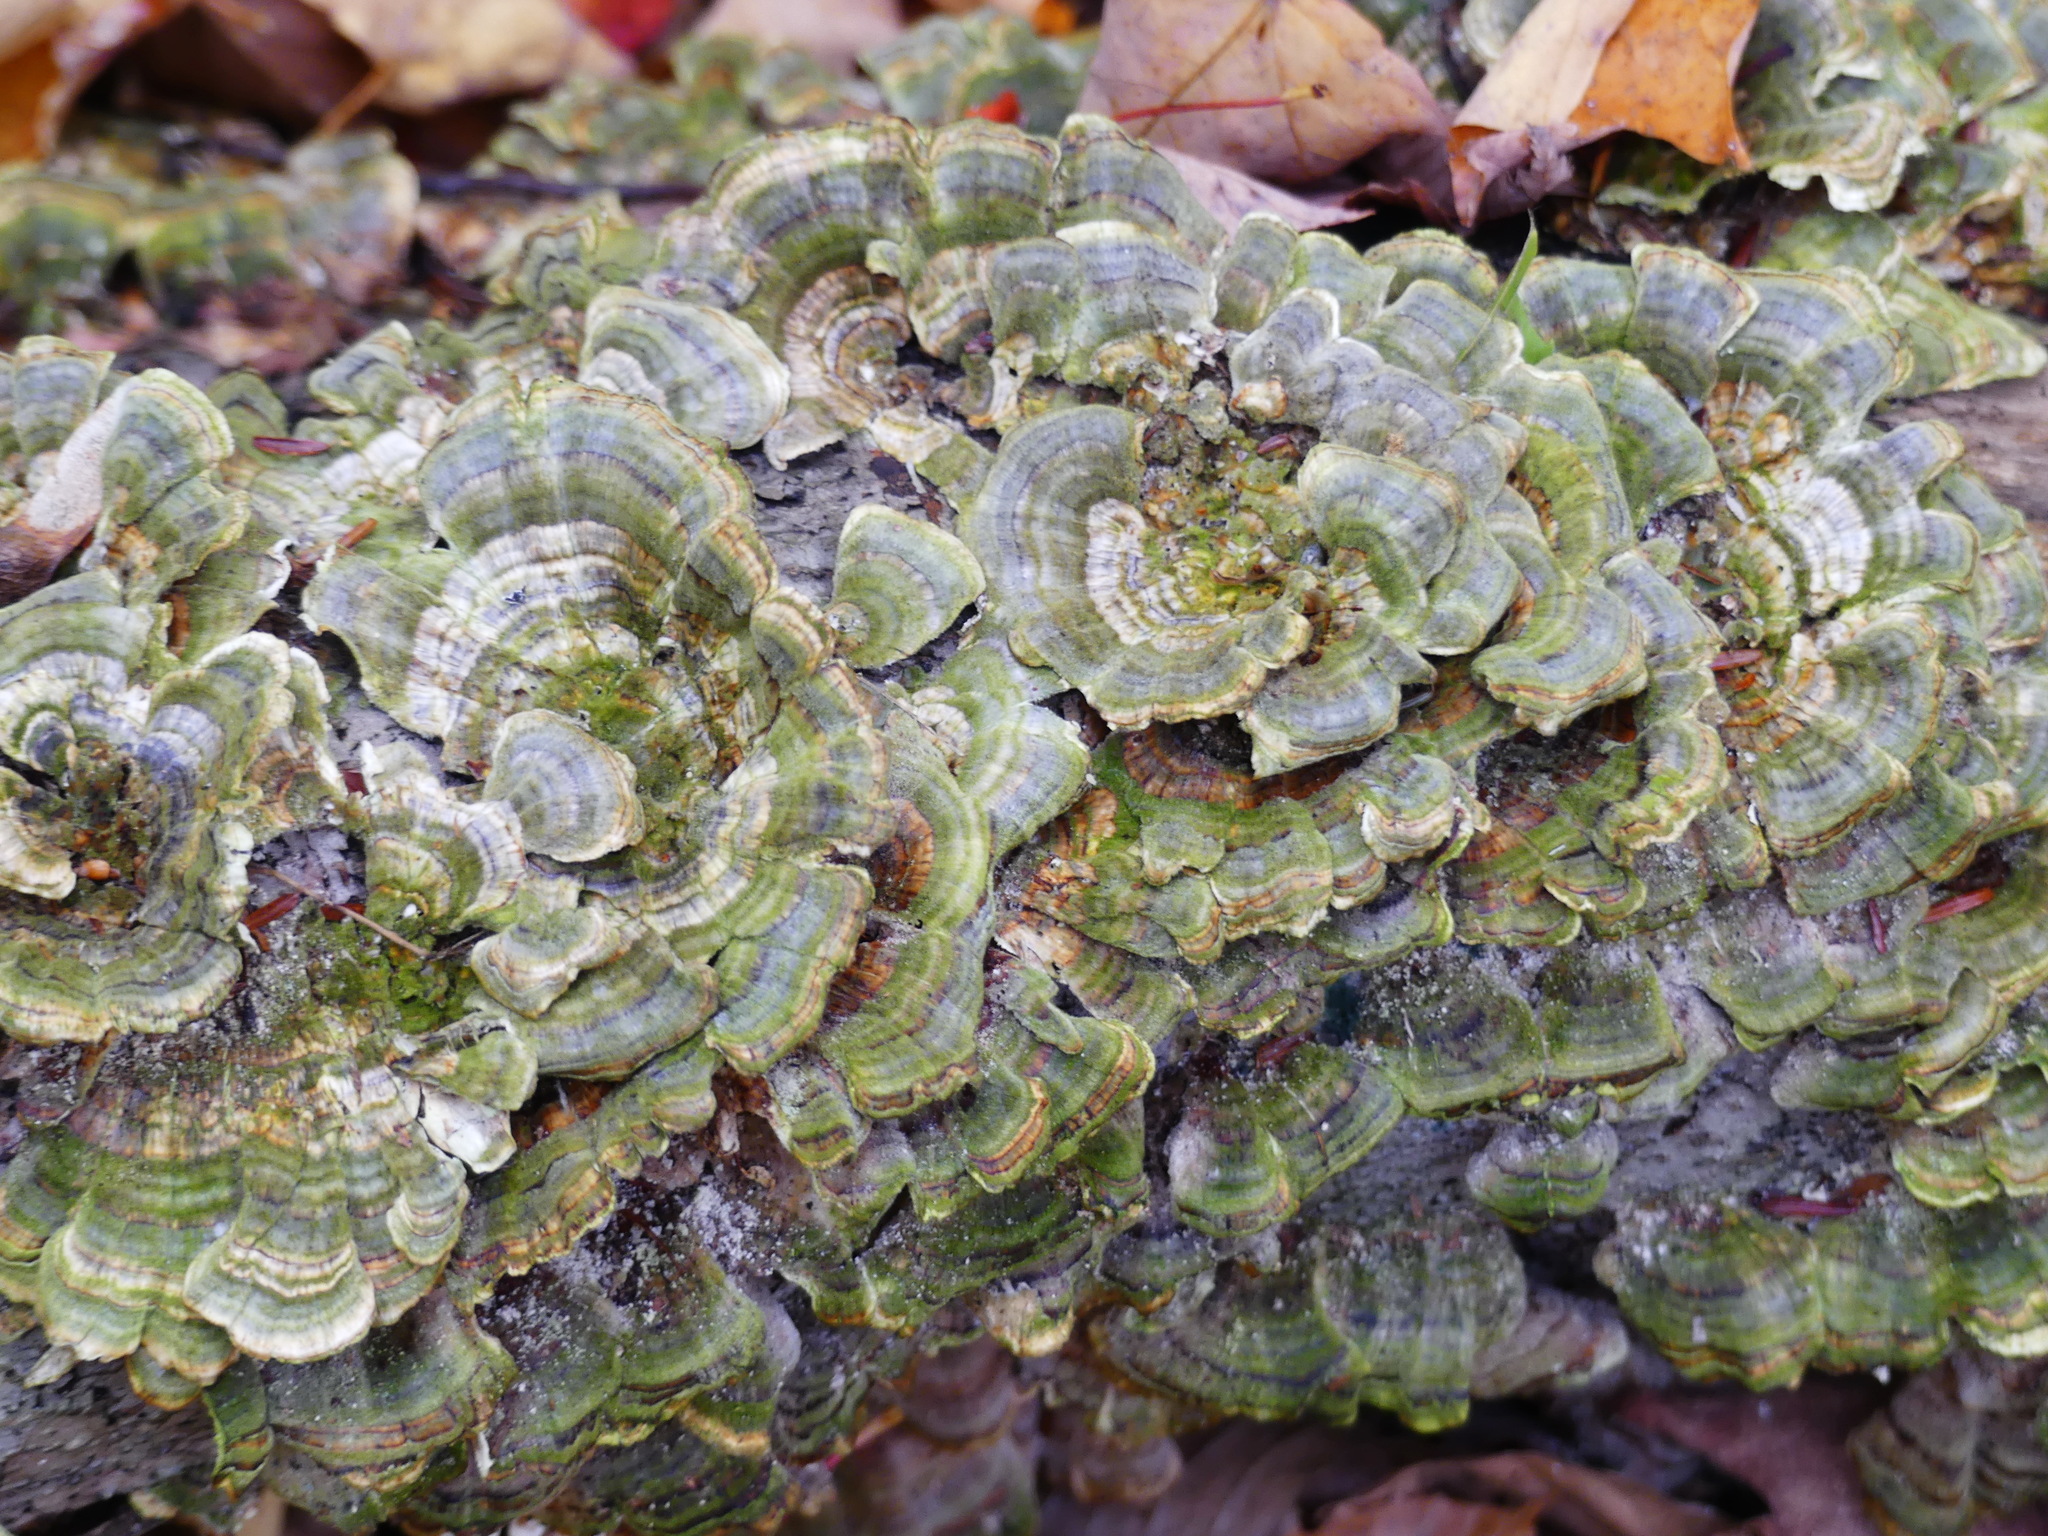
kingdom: Fungi
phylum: Basidiomycota
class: Agaricomycetes
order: Polyporales
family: Polyporaceae
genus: Trametes
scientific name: Trametes versicolor
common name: Turkeytail
